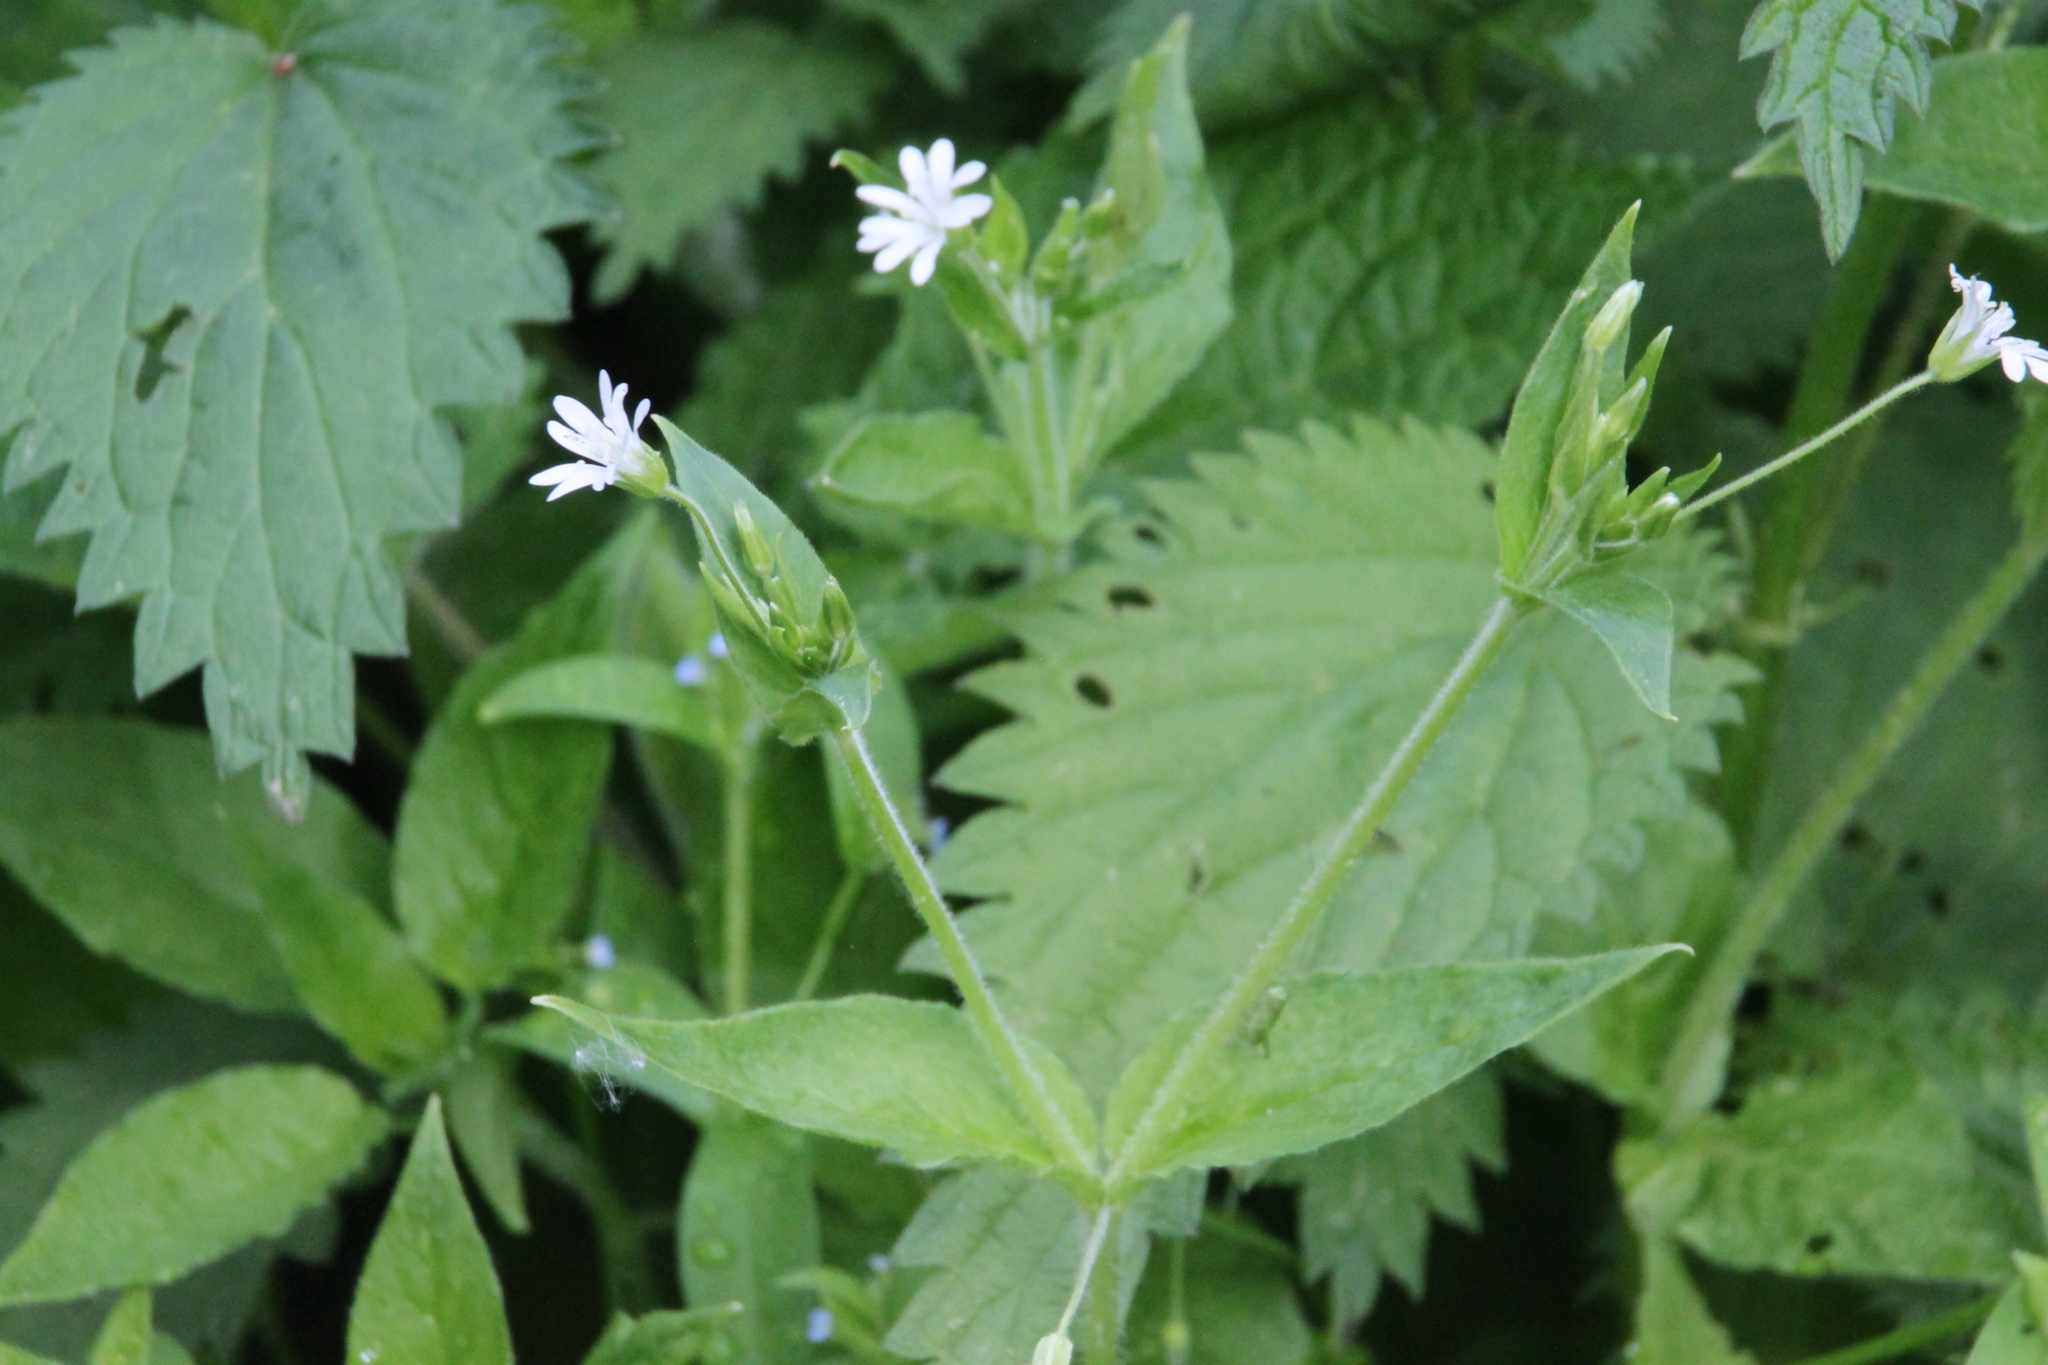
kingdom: Plantae
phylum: Tracheophyta
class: Magnoliopsida
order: Caryophyllales
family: Caryophyllaceae
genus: Stellaria
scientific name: Stellaria nemorum
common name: Wood stitchwort
